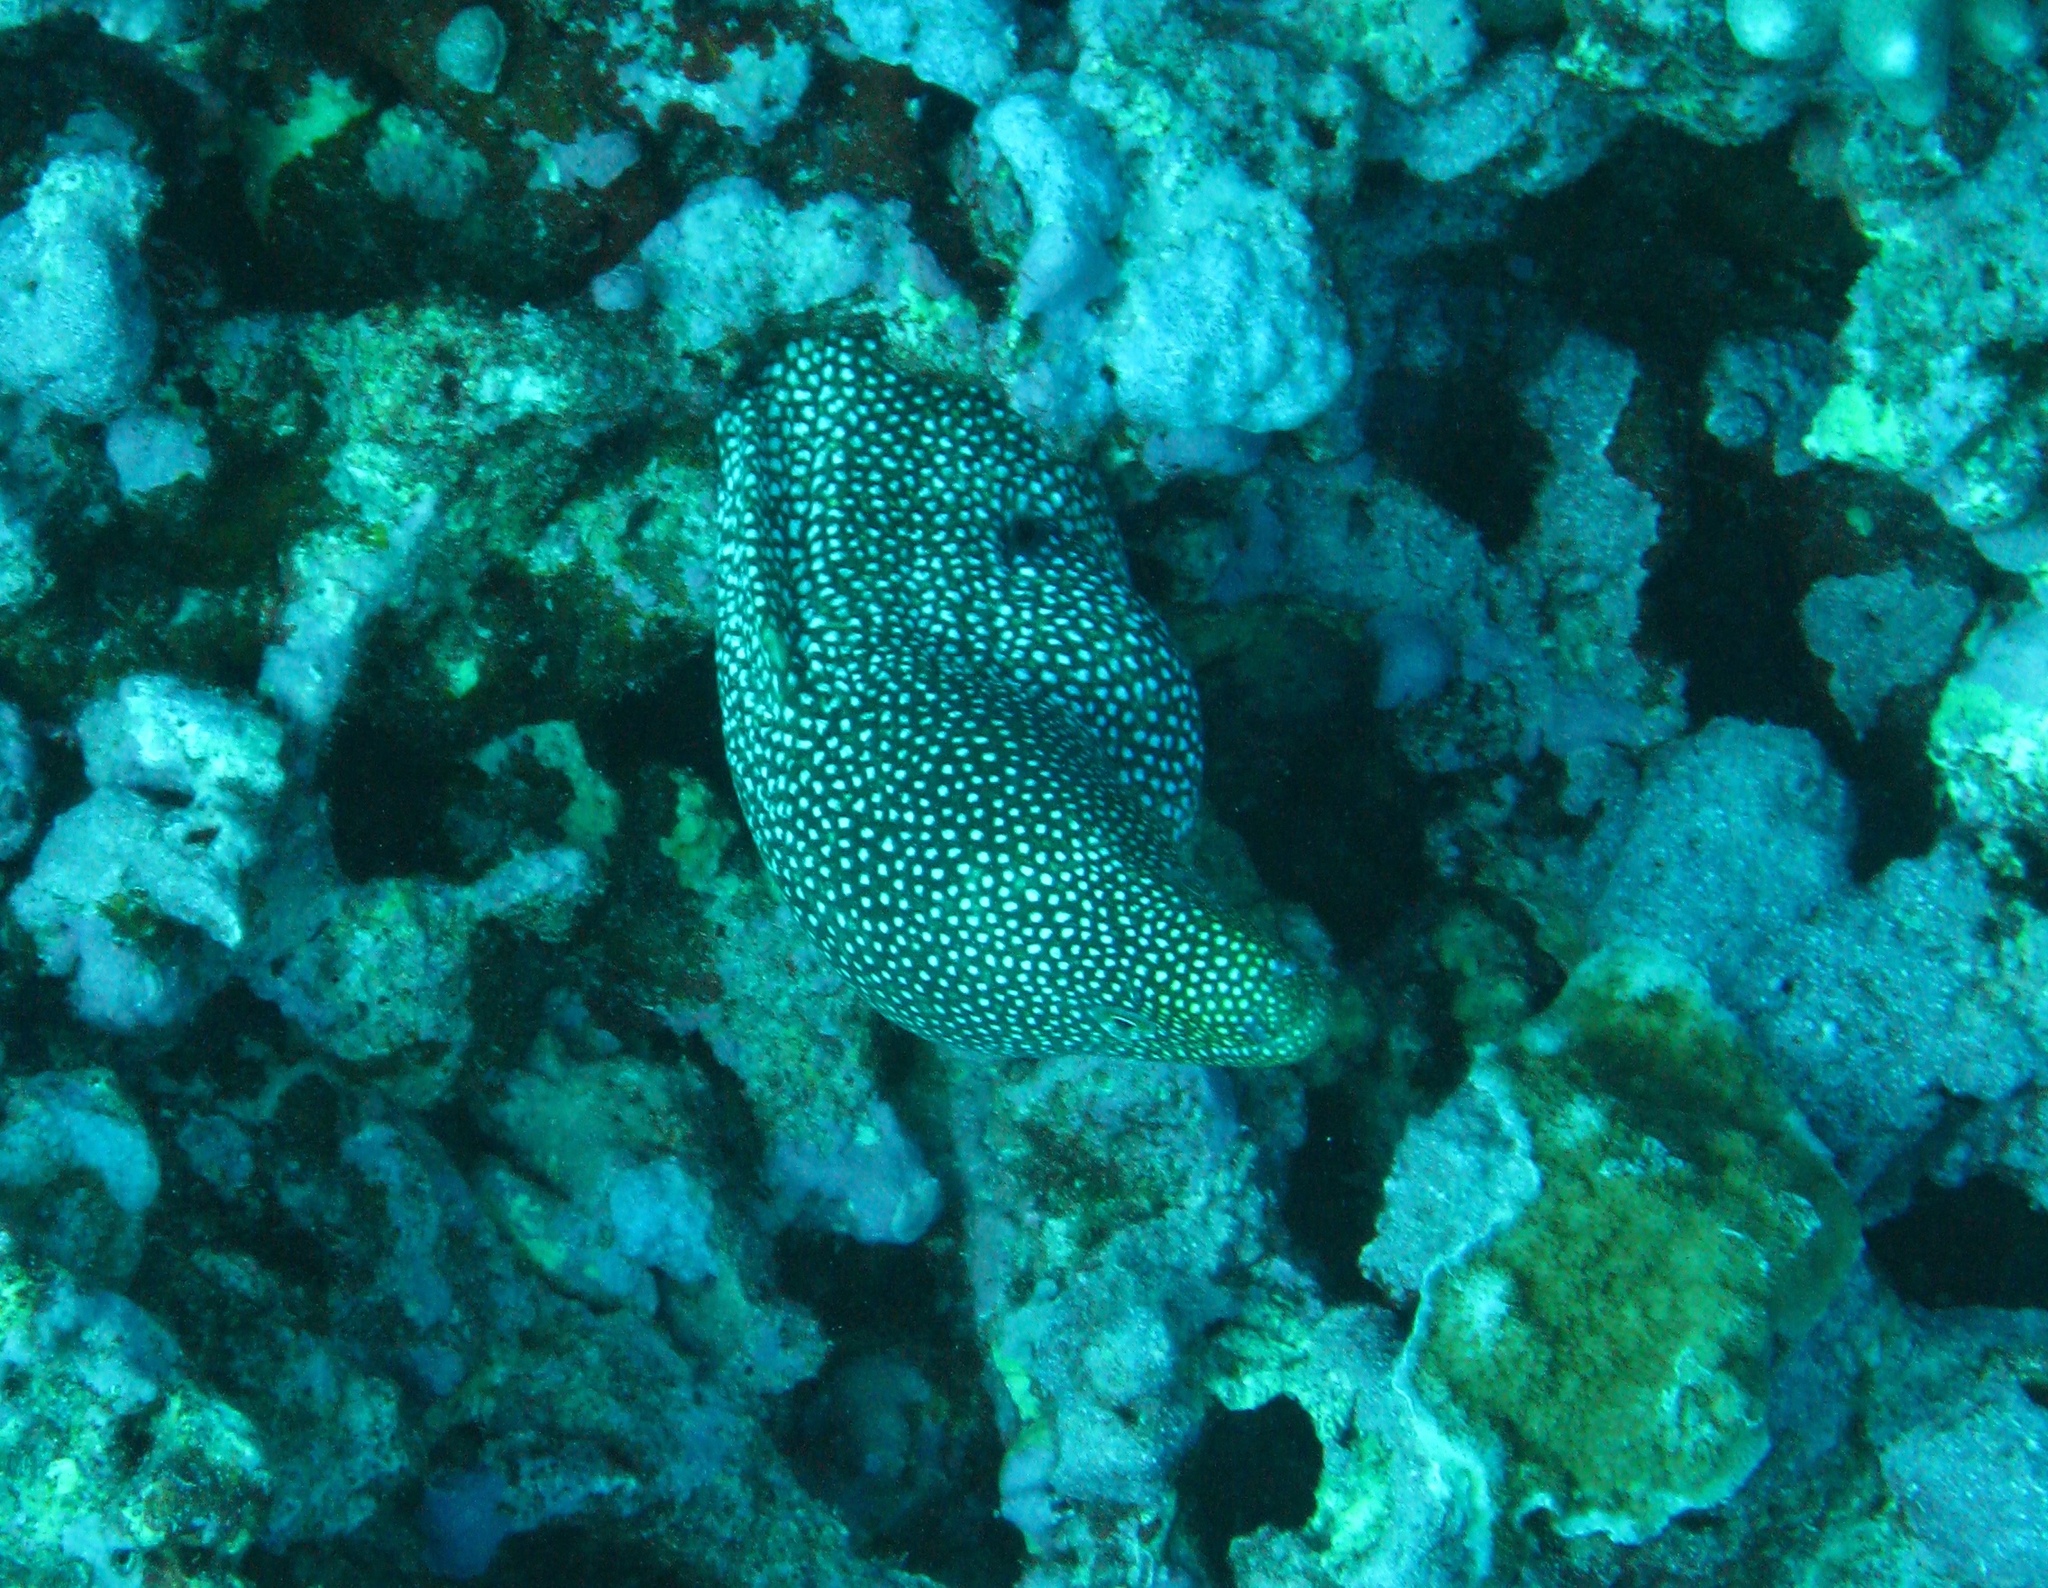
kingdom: Animalia
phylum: Chordata
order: Anguilliformes
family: Muraenidae
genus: Gymnothorax
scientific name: Gymnothorax meleagris
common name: Guineafowl moray
